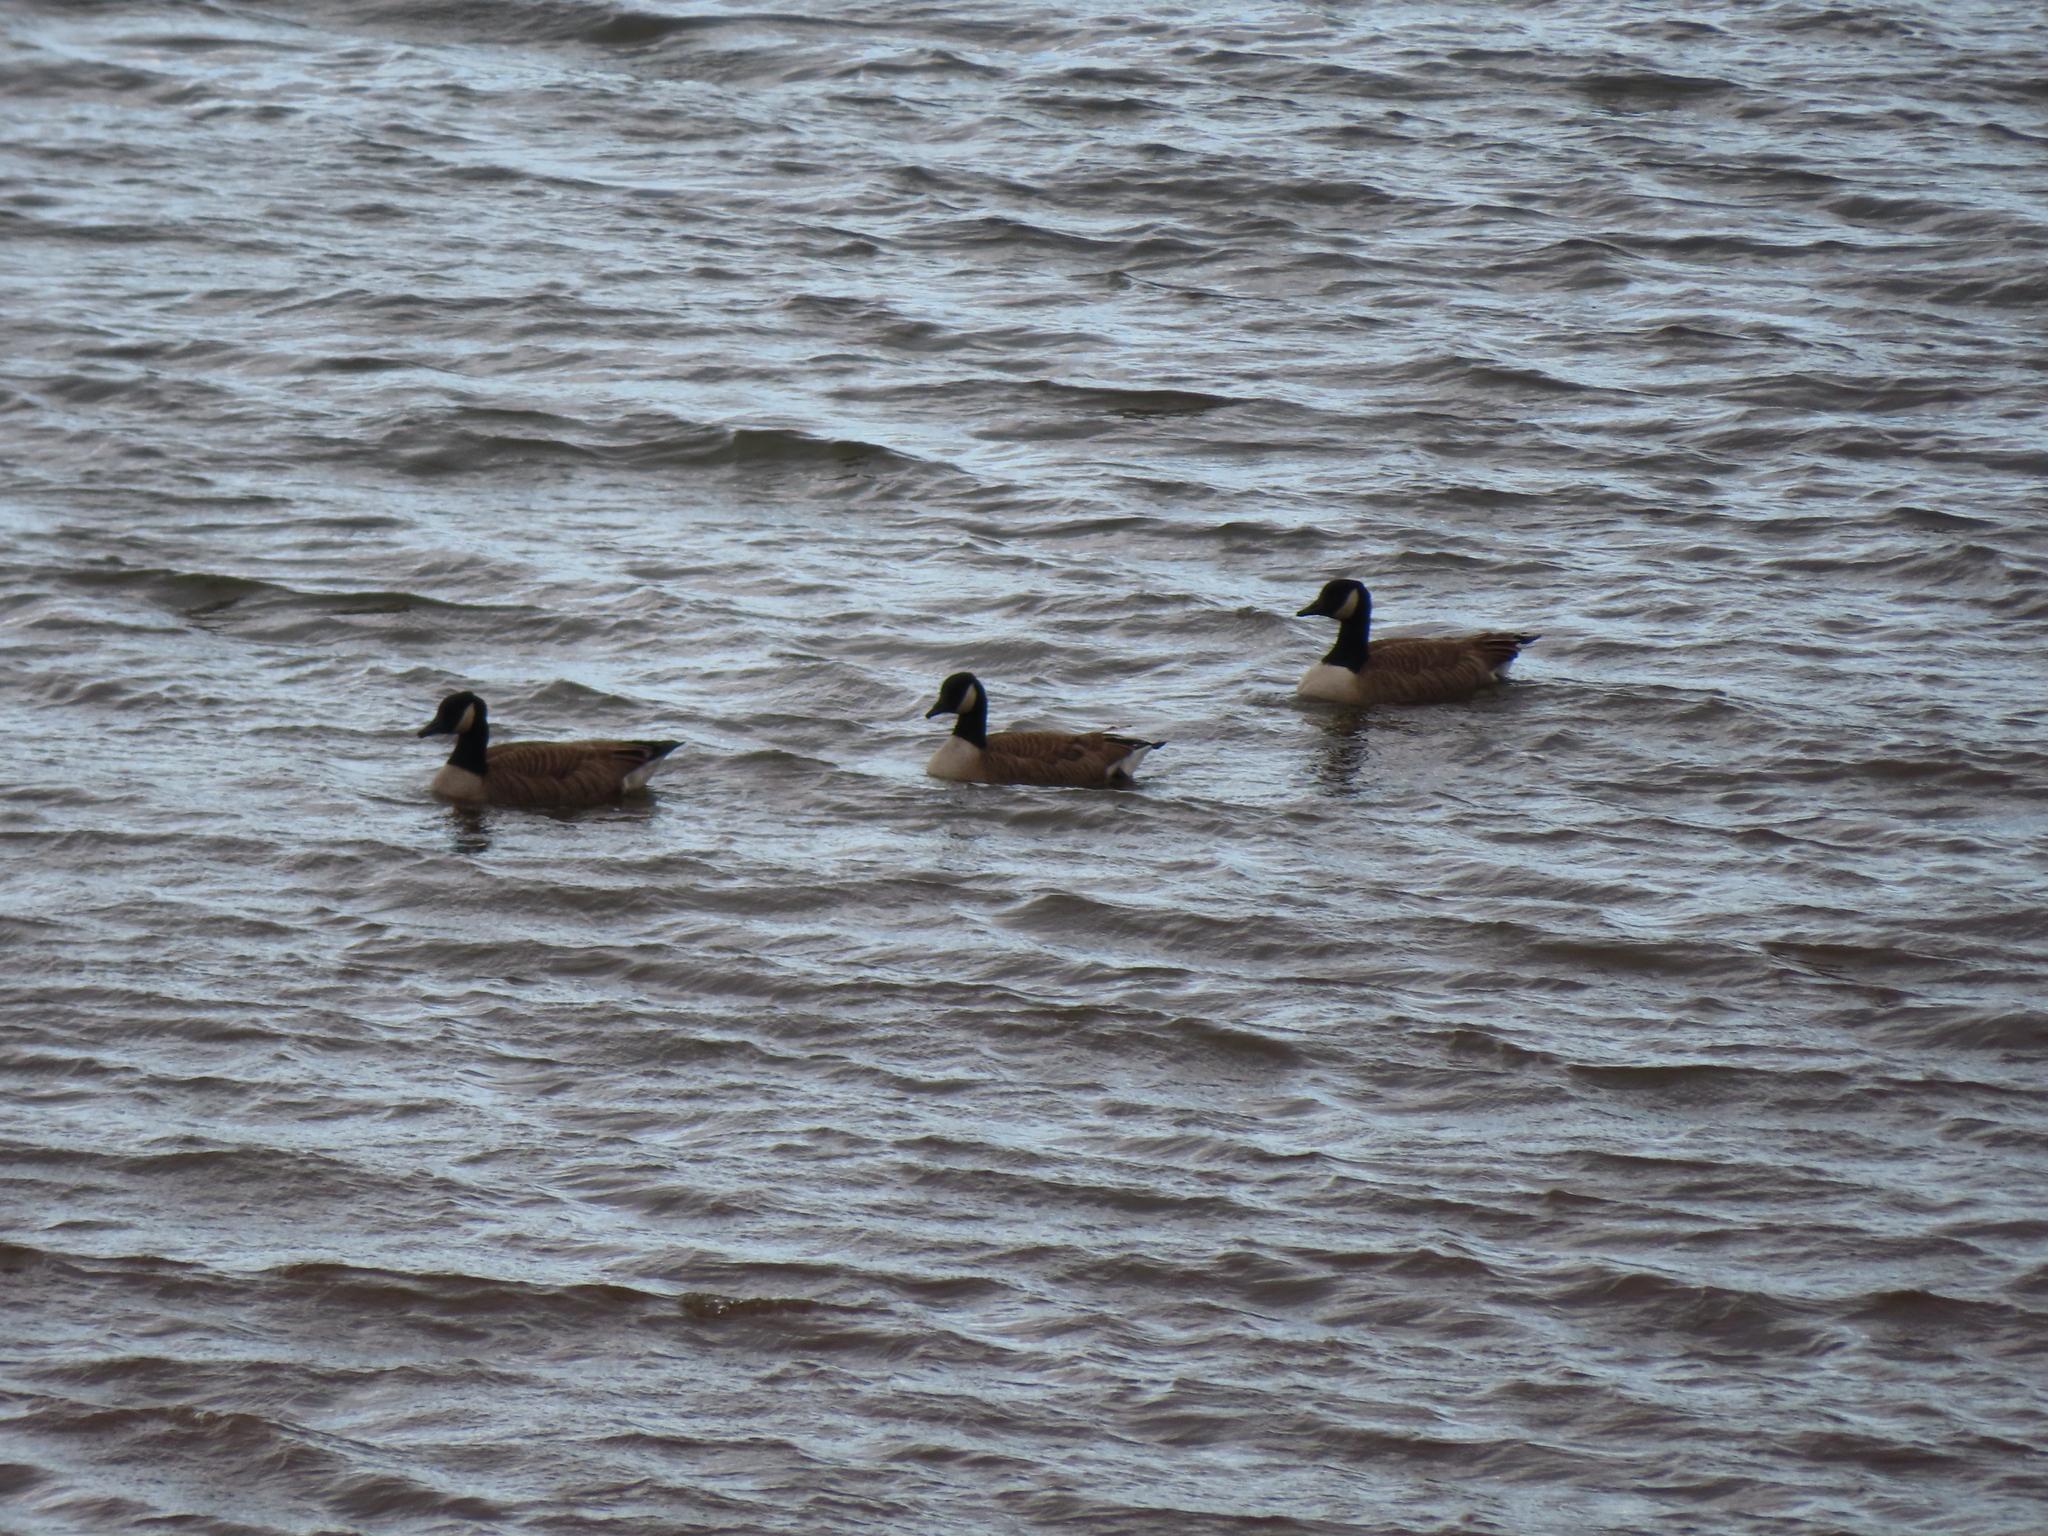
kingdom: Animalia
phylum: Chordata
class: Aves
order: Anseriformes
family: Anatidae
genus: Branta
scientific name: Branta canadensis
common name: Canada goose
